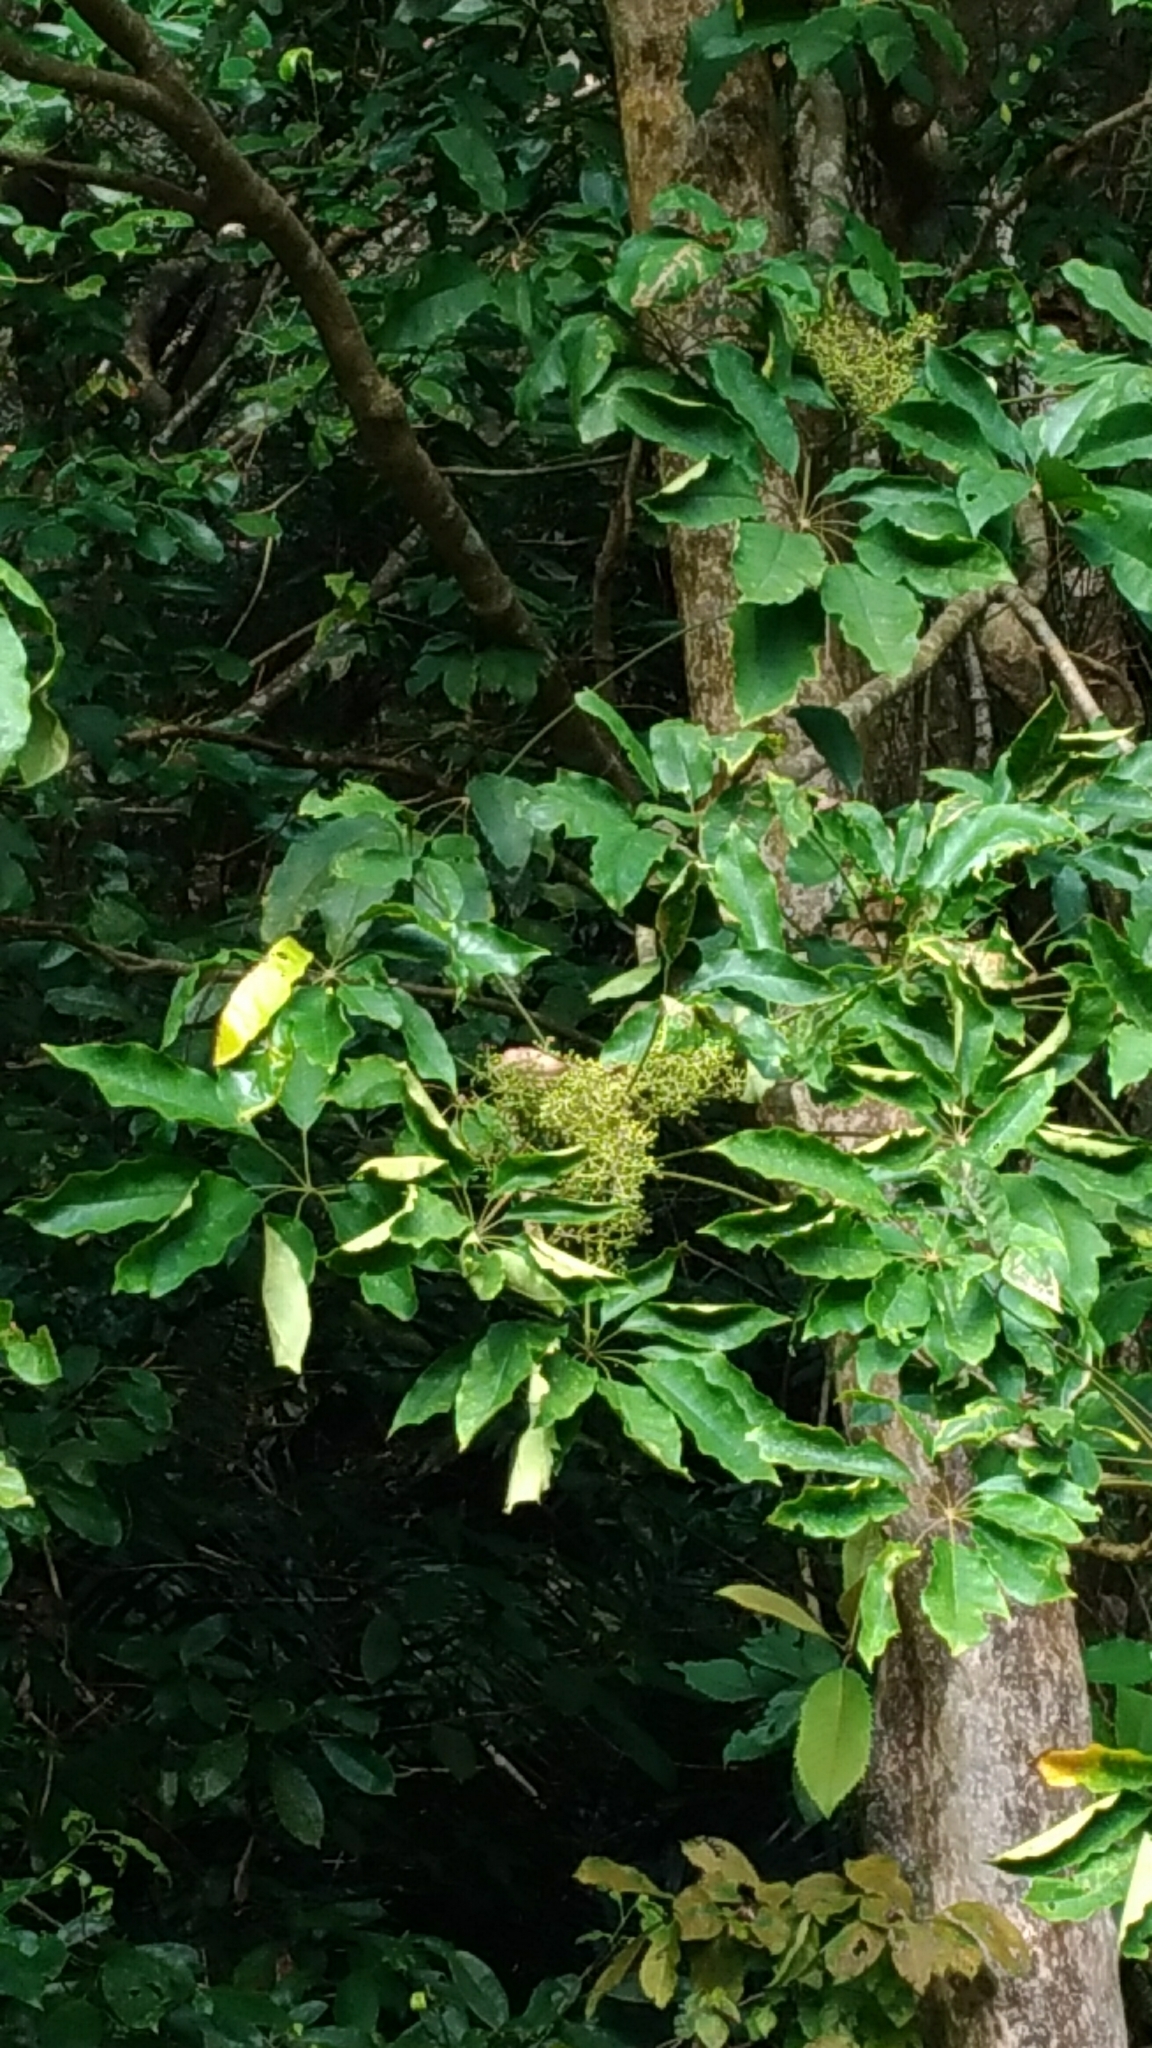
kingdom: Plantae
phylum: Tracheophyta
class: Magnoliopsida
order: Apiales
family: Araliaceae
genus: Heptapleurum
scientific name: Heptapleurum heptaphyllum
